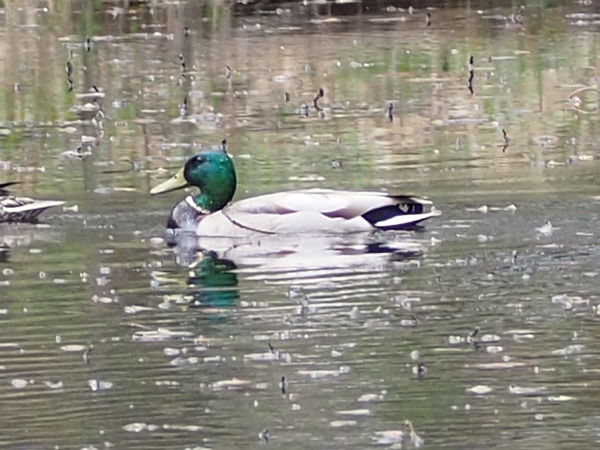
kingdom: Animalia
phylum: Chordata
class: Aves
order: Anseriformes
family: Anatidae
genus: Anas
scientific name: Anas platyrhynchos
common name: Mallard
